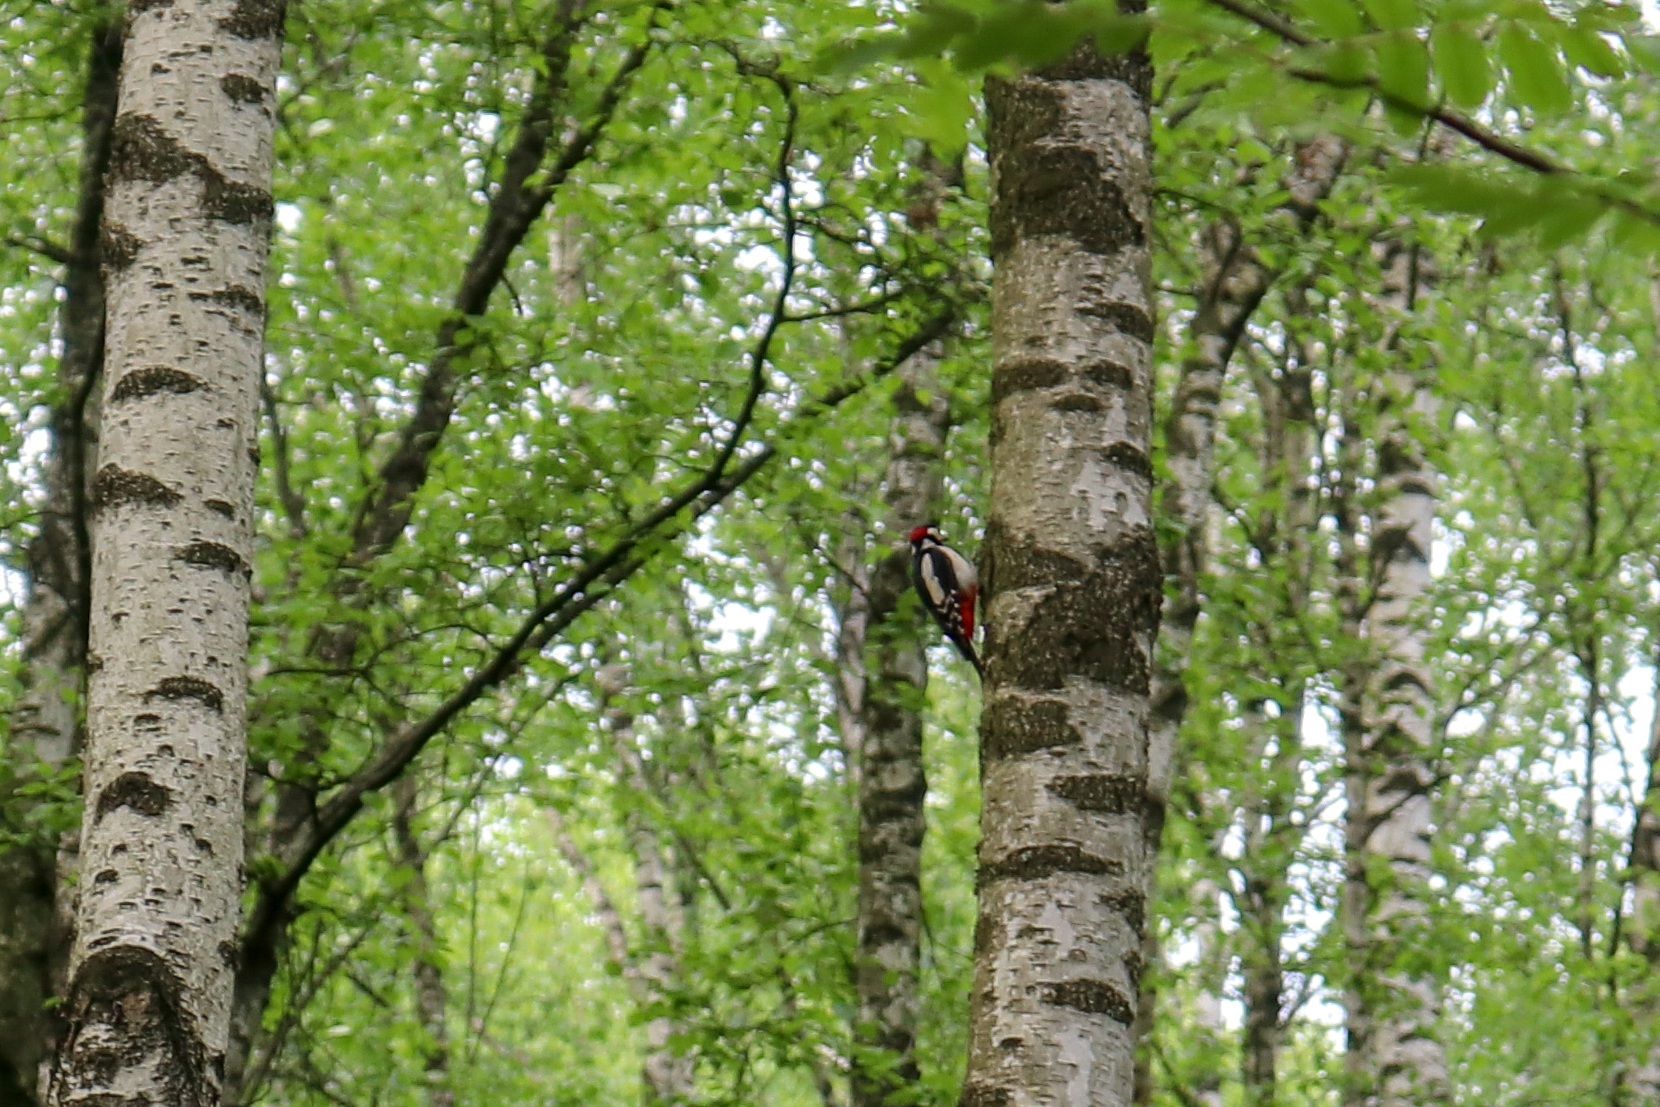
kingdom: Animalia
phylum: Chordata
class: Aves
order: Piciformes
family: Picidae
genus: Dendrocopos
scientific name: Dendrocopos major
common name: Great spotted woodpecker
